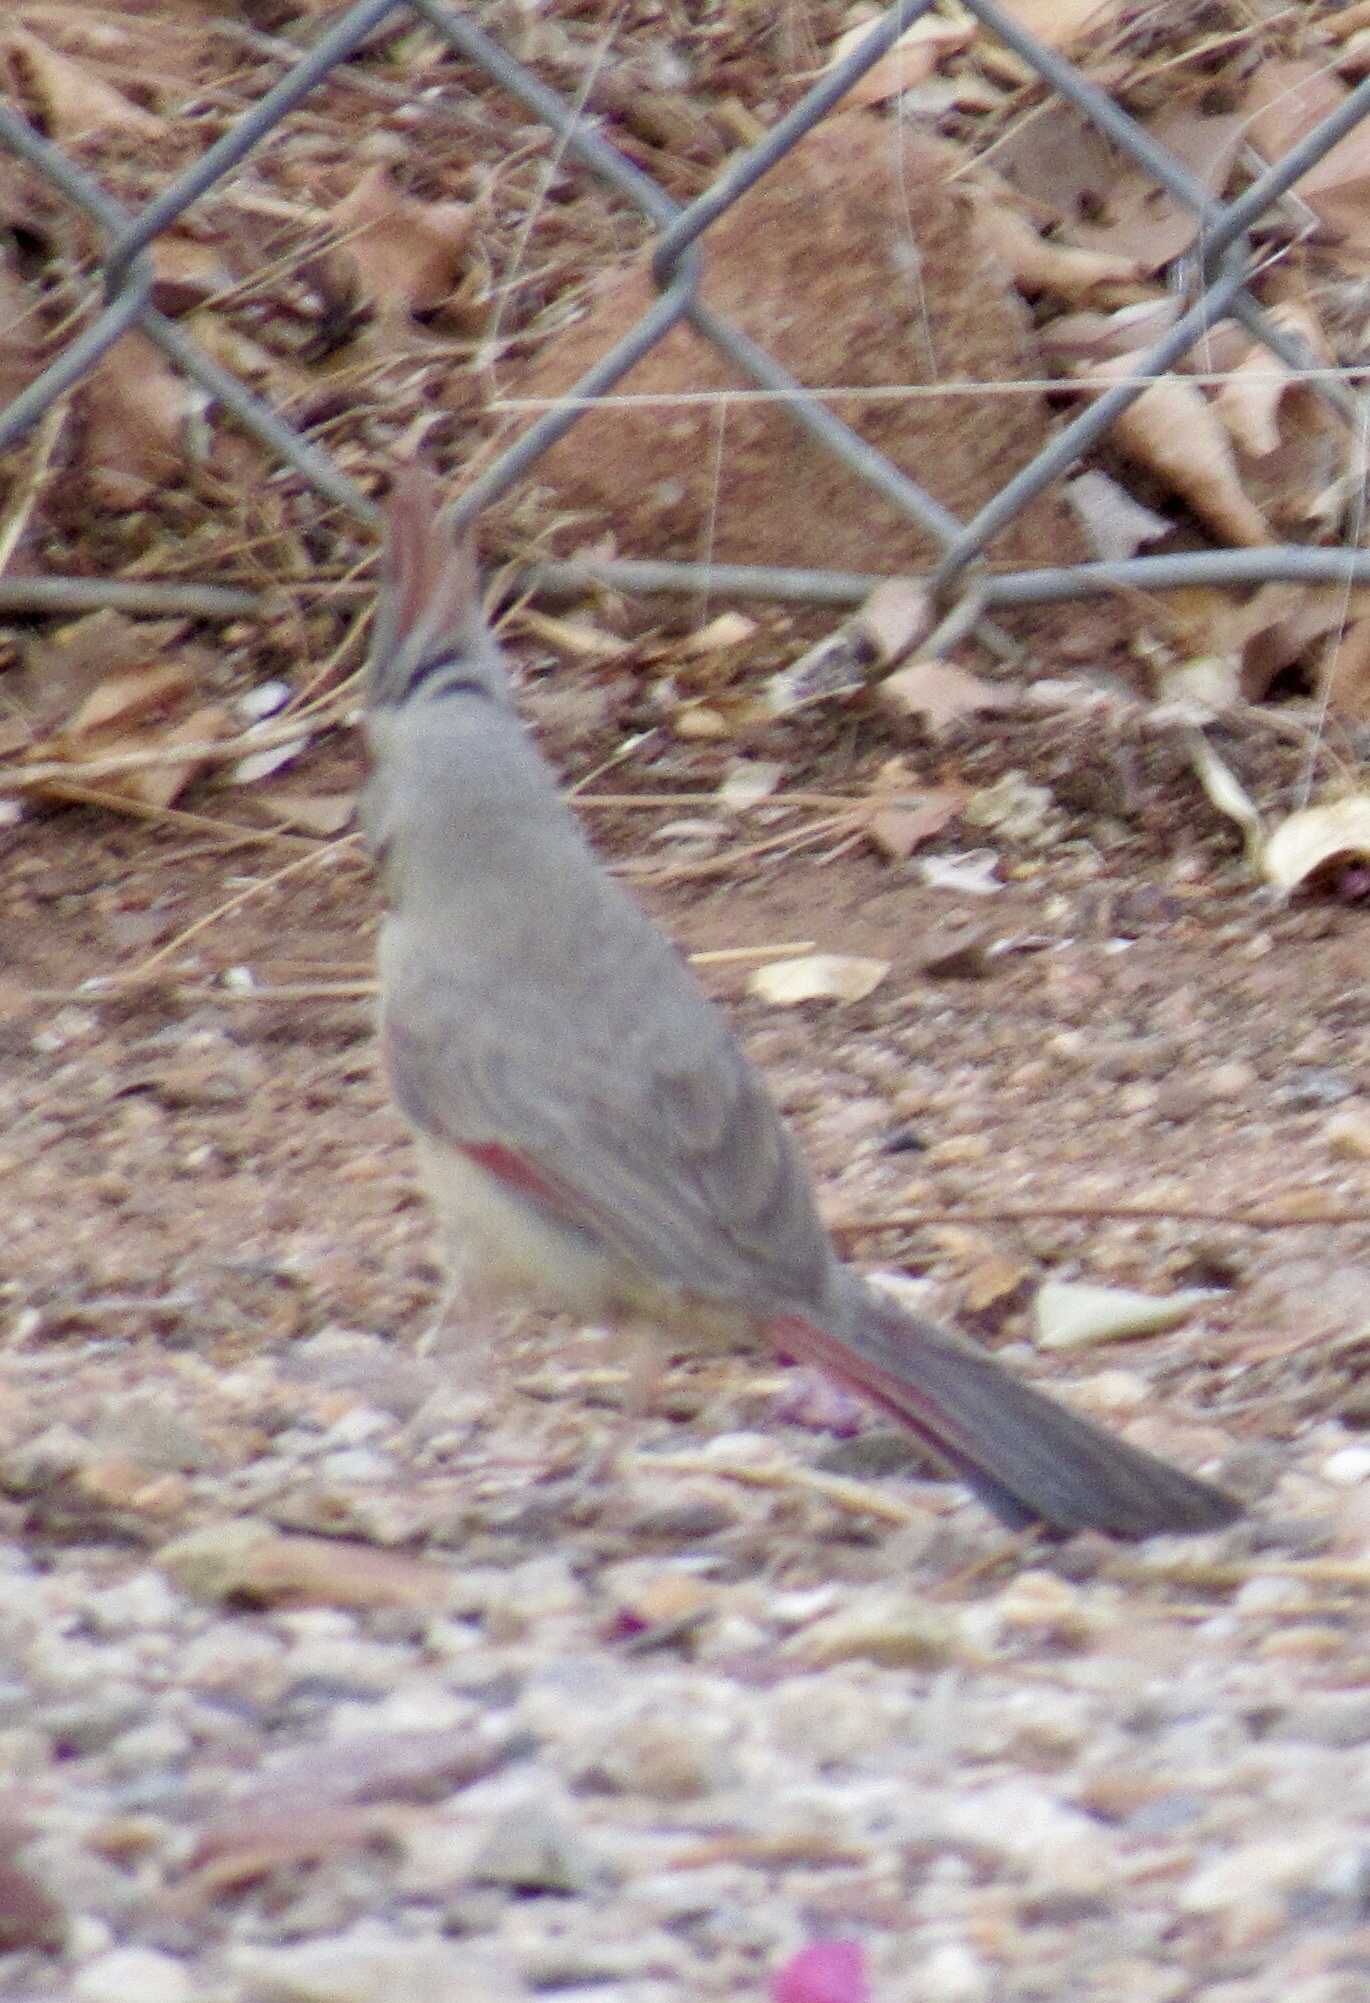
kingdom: Animalia
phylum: Chordata
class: Aves
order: Passeriformes
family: Cardinalidae
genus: Cardinalis
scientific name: Cardinalis sinuatus
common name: Pyrrhuloxia
